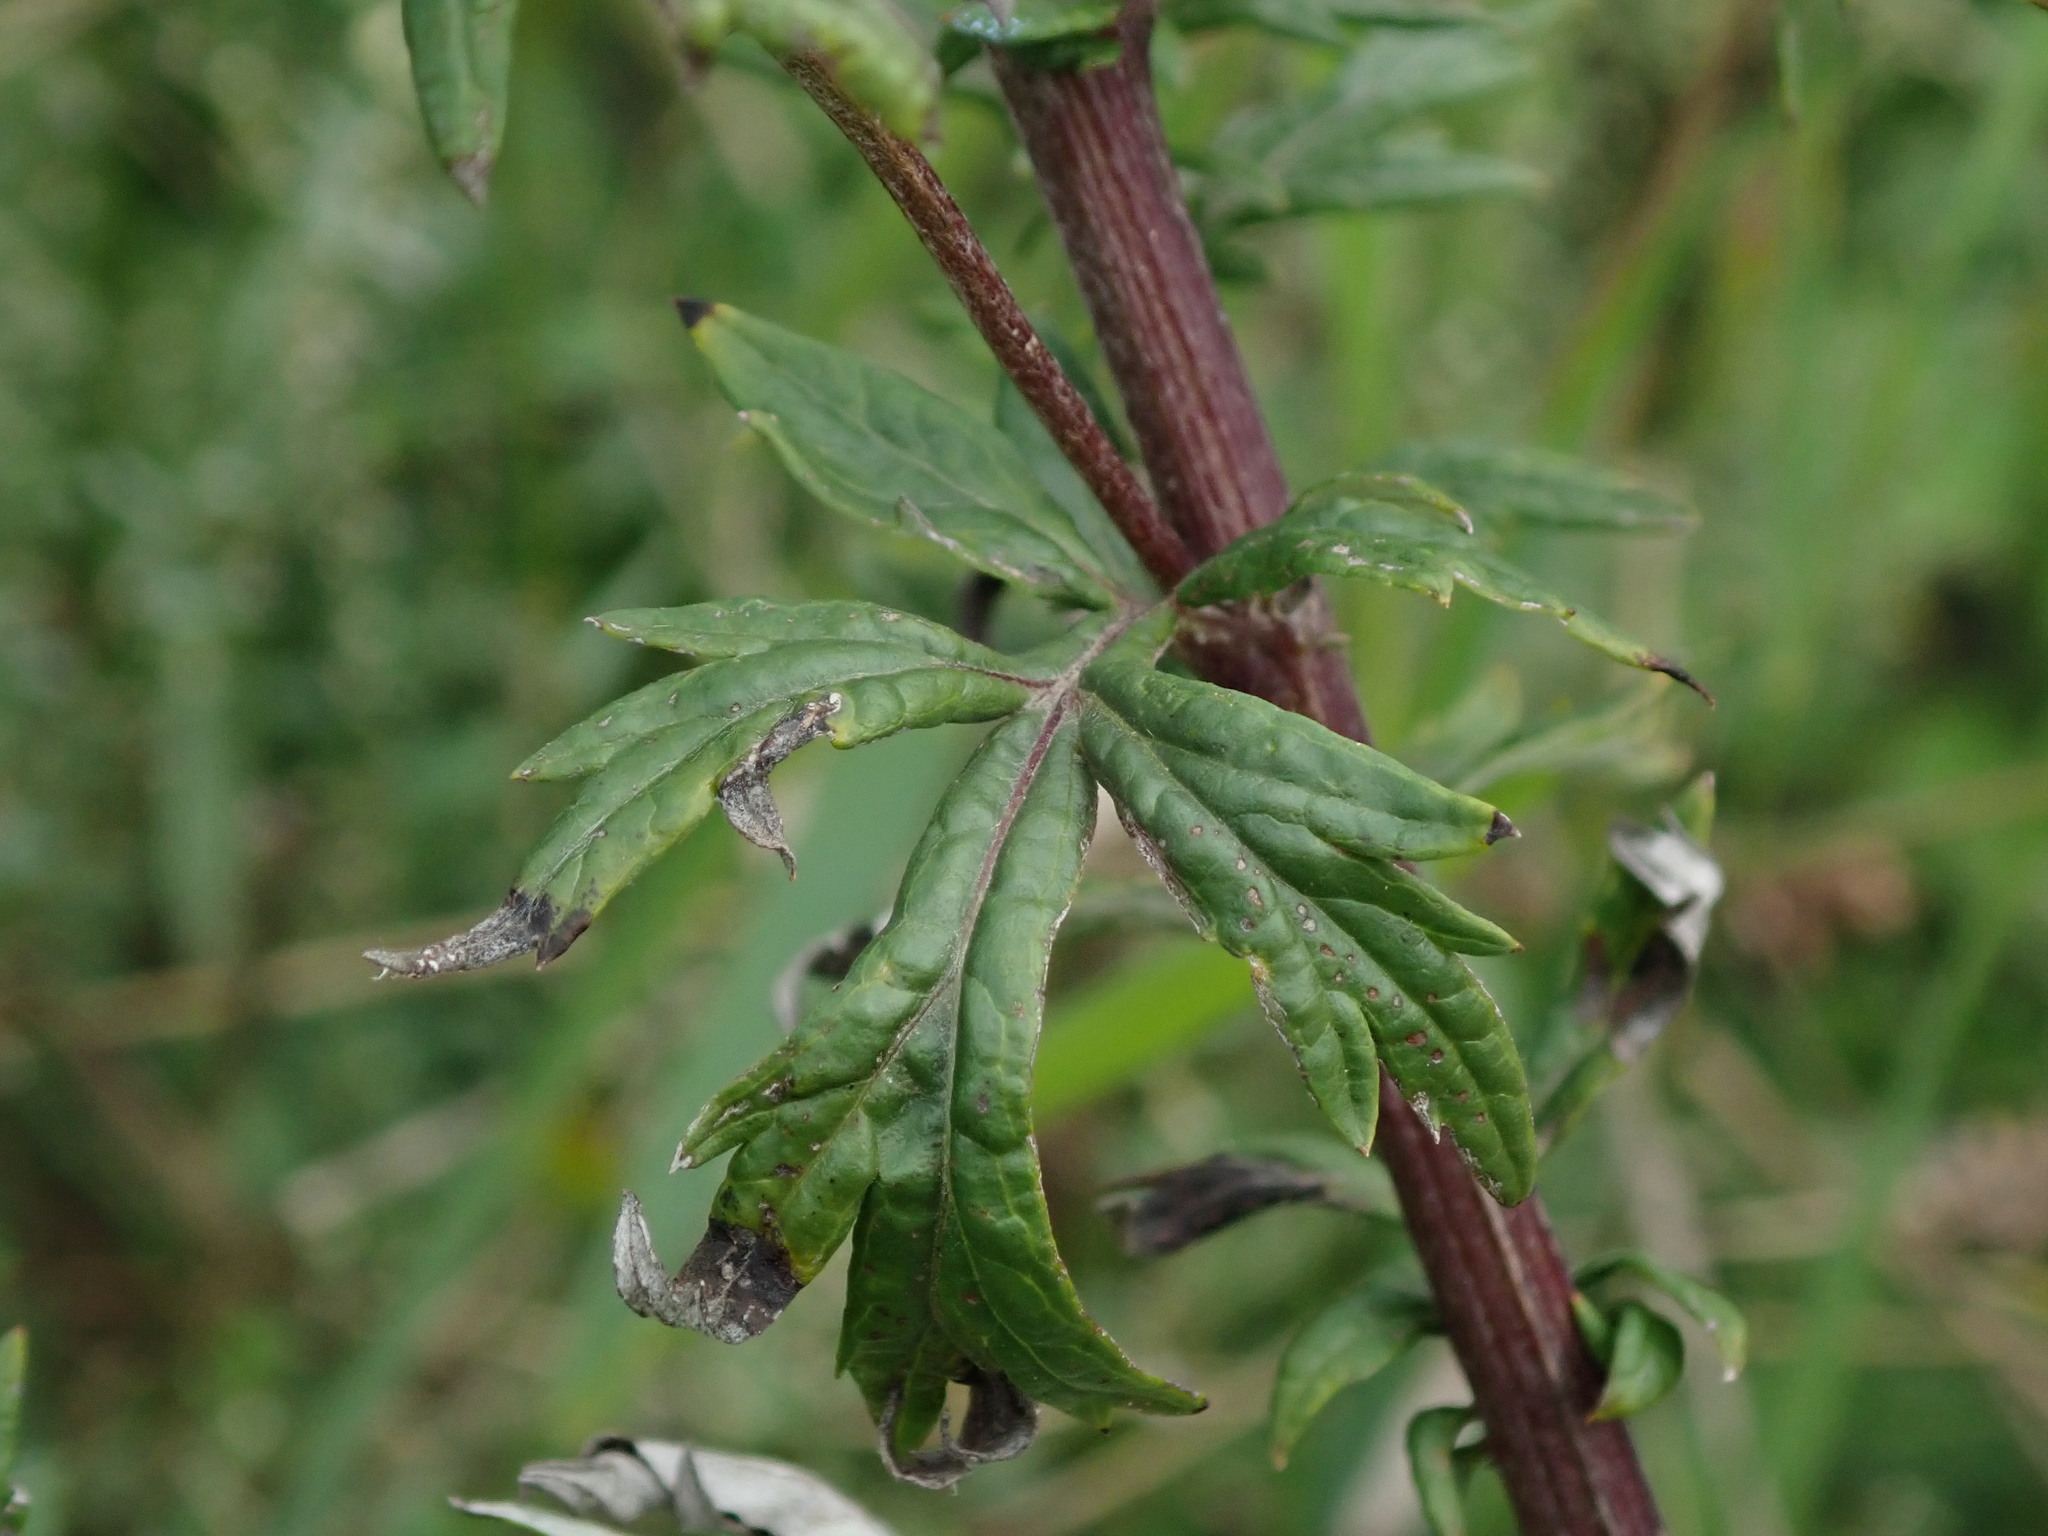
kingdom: Plantae
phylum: Tracheophyta
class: Magnoliopsida
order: Asterales
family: Asteraceae
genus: Artemisia
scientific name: Artemisia vulgaris
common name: Mugwort
